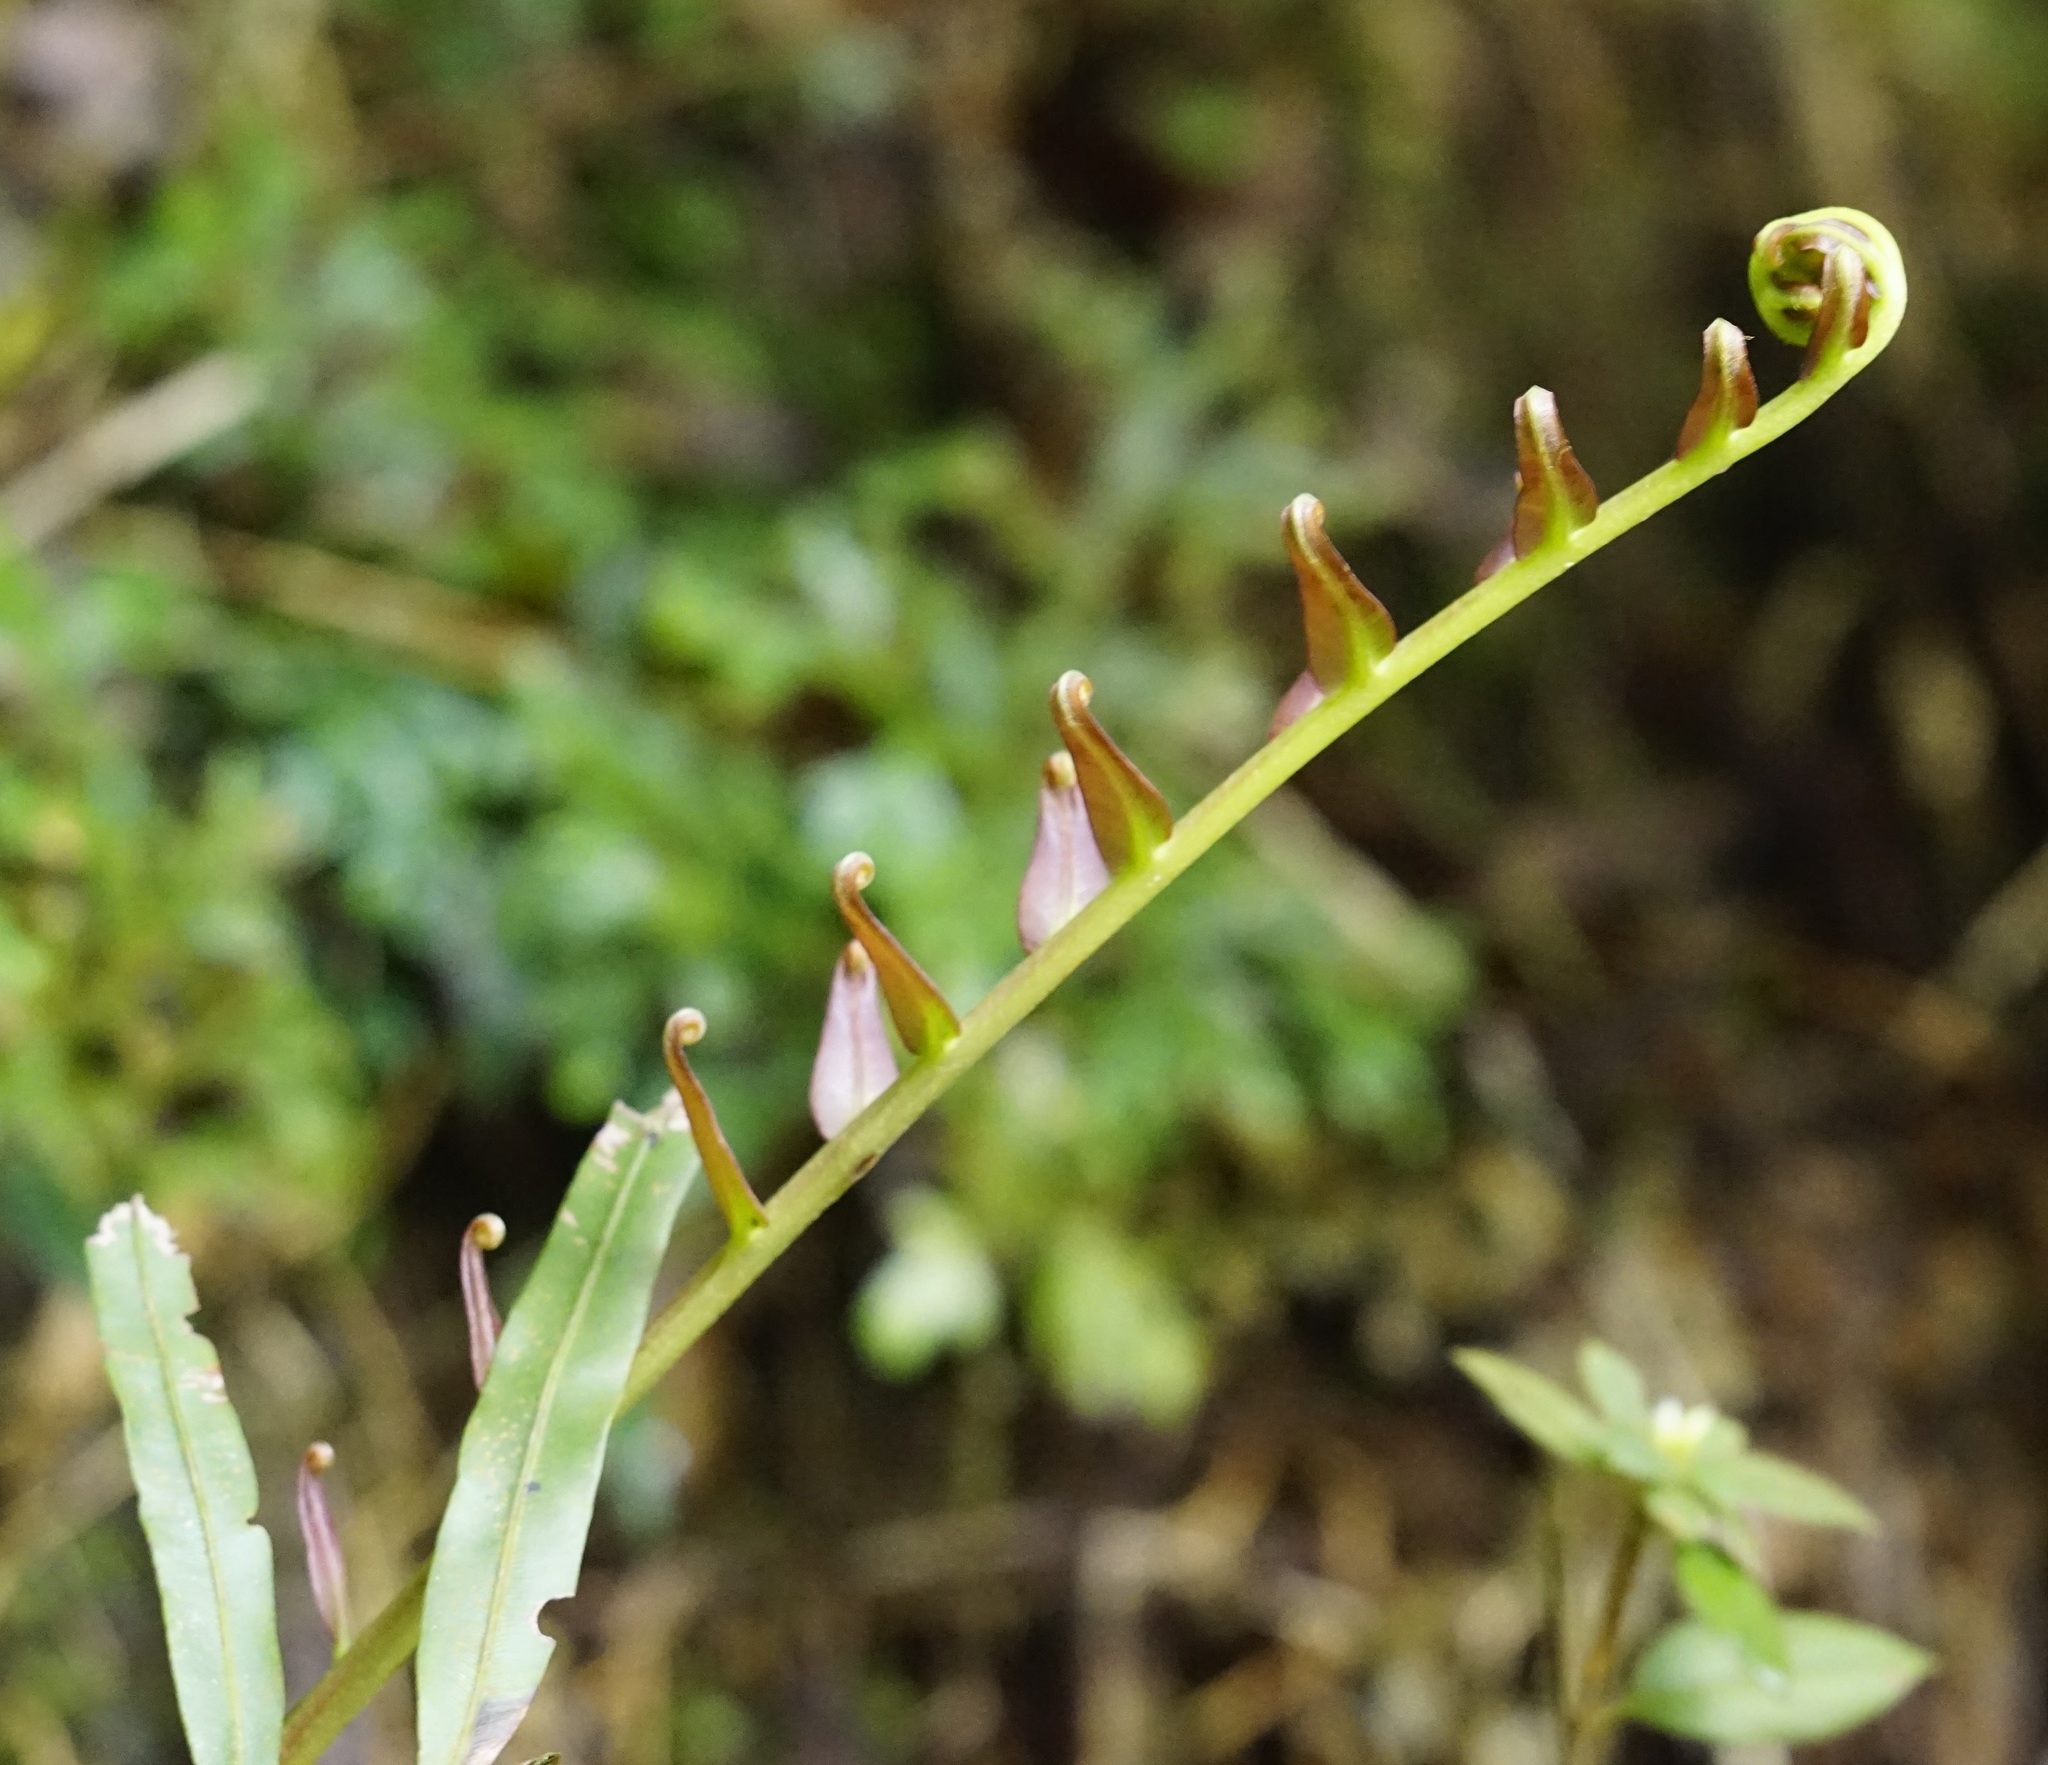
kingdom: Plantae
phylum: Tracheophyta
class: Polypodiopsida
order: Polypodiales
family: Blechnaceae
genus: Blechnopsis
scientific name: Blechnopsis orientalis
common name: Oriental blechnum
